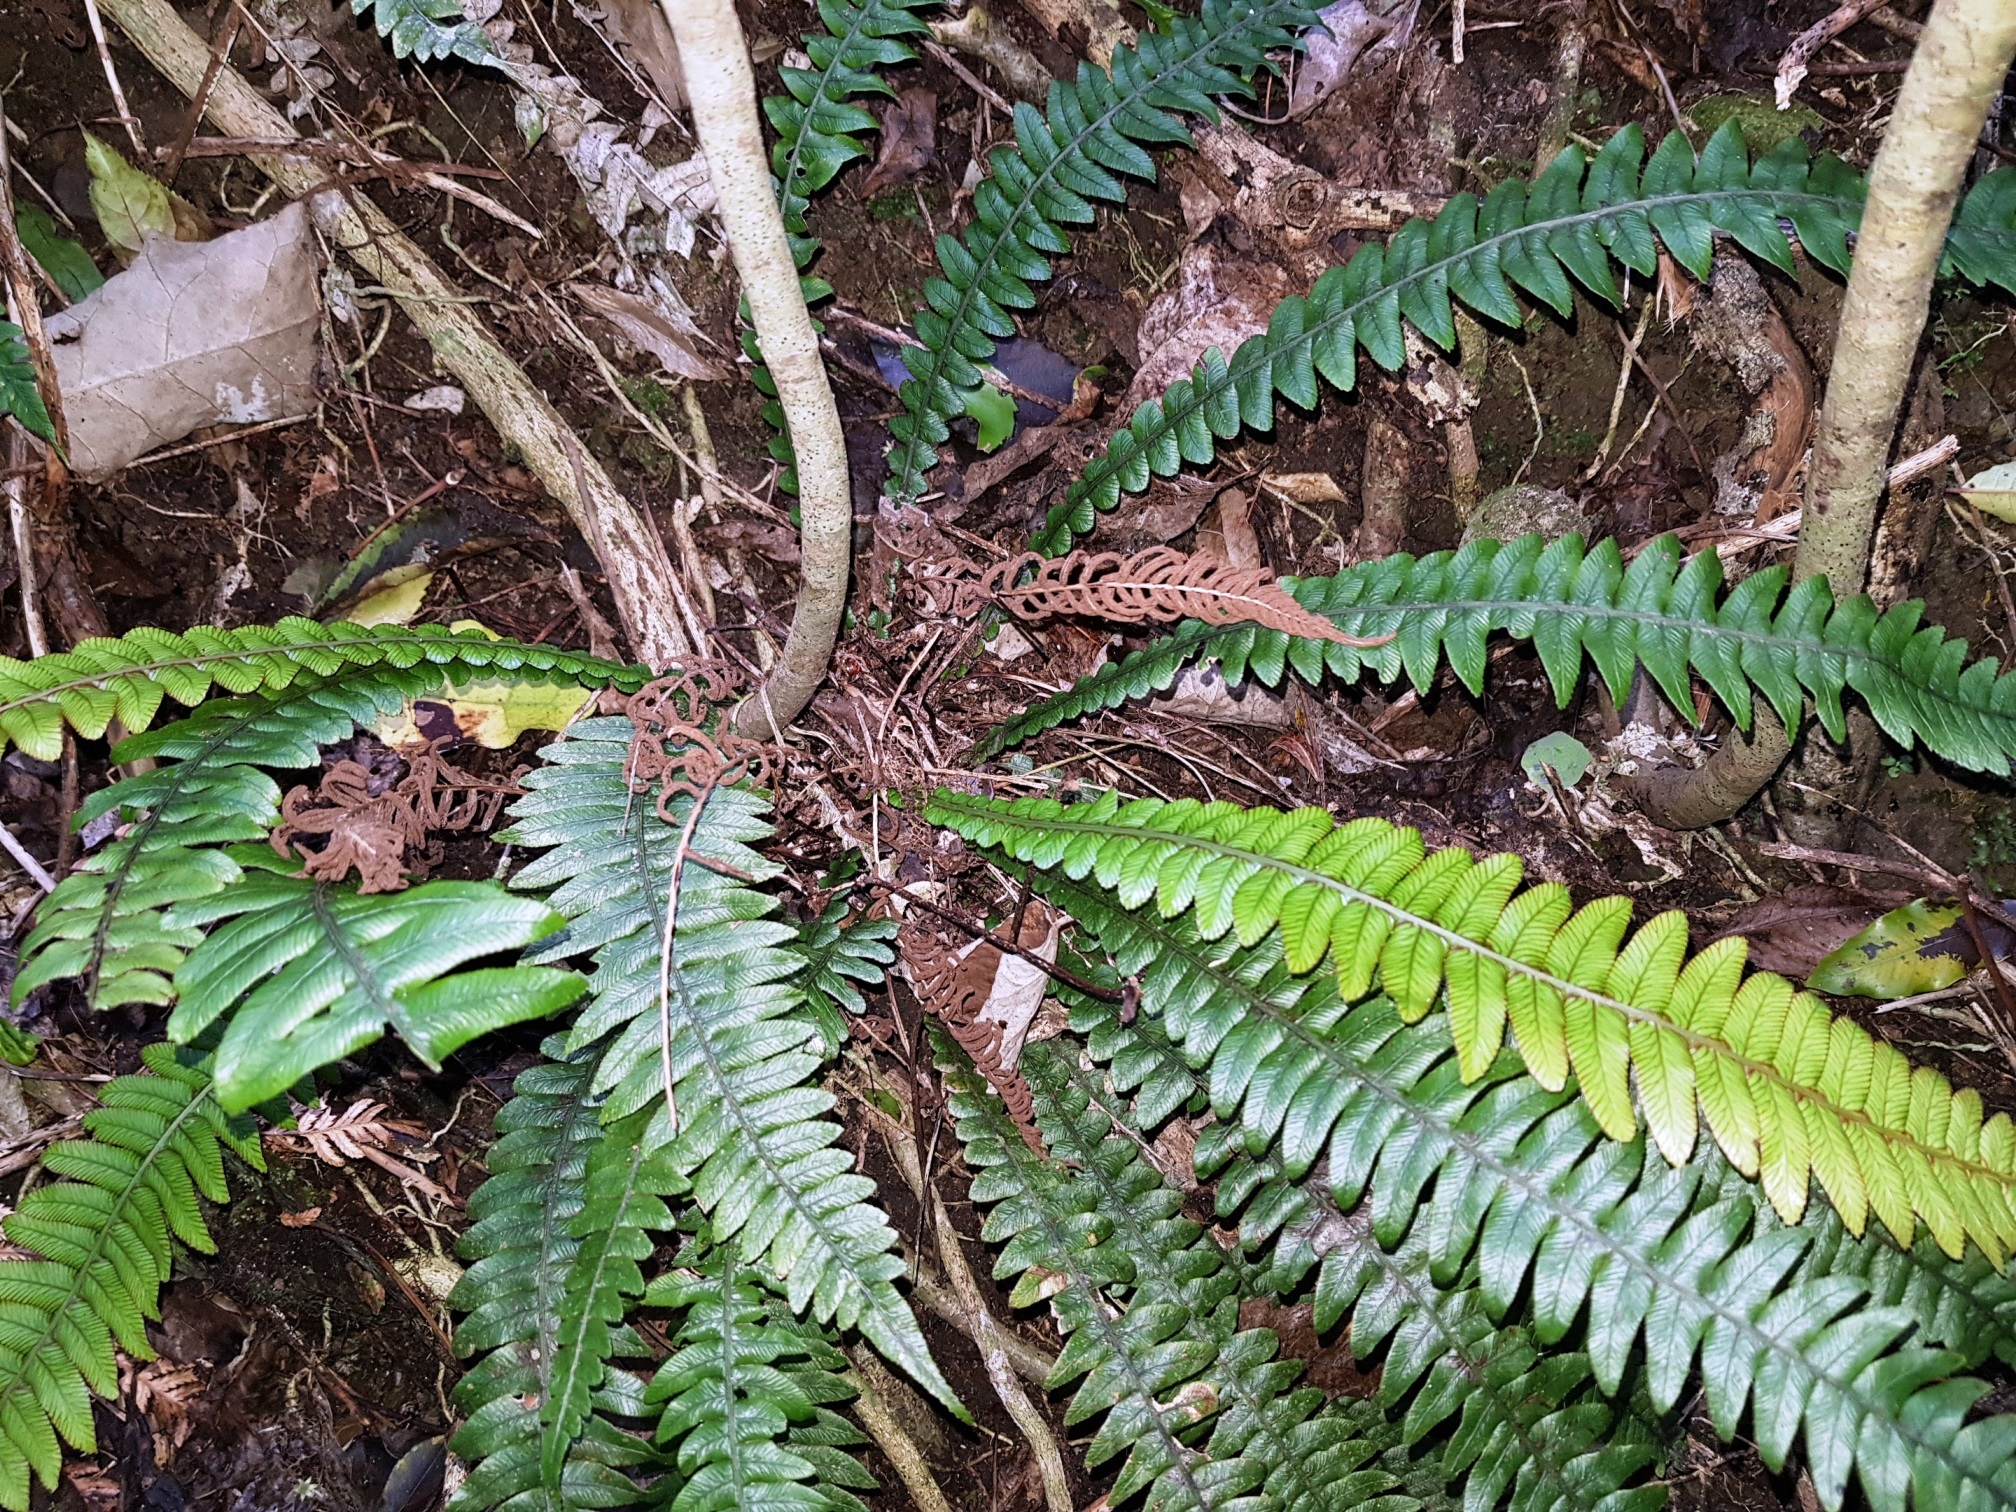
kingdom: Plantae
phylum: Tracheophyta
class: Polypodiopsida
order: Polypodiales
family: Blechnaceae
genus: Austroblechnum
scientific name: Austroblechnum lanceolatum
